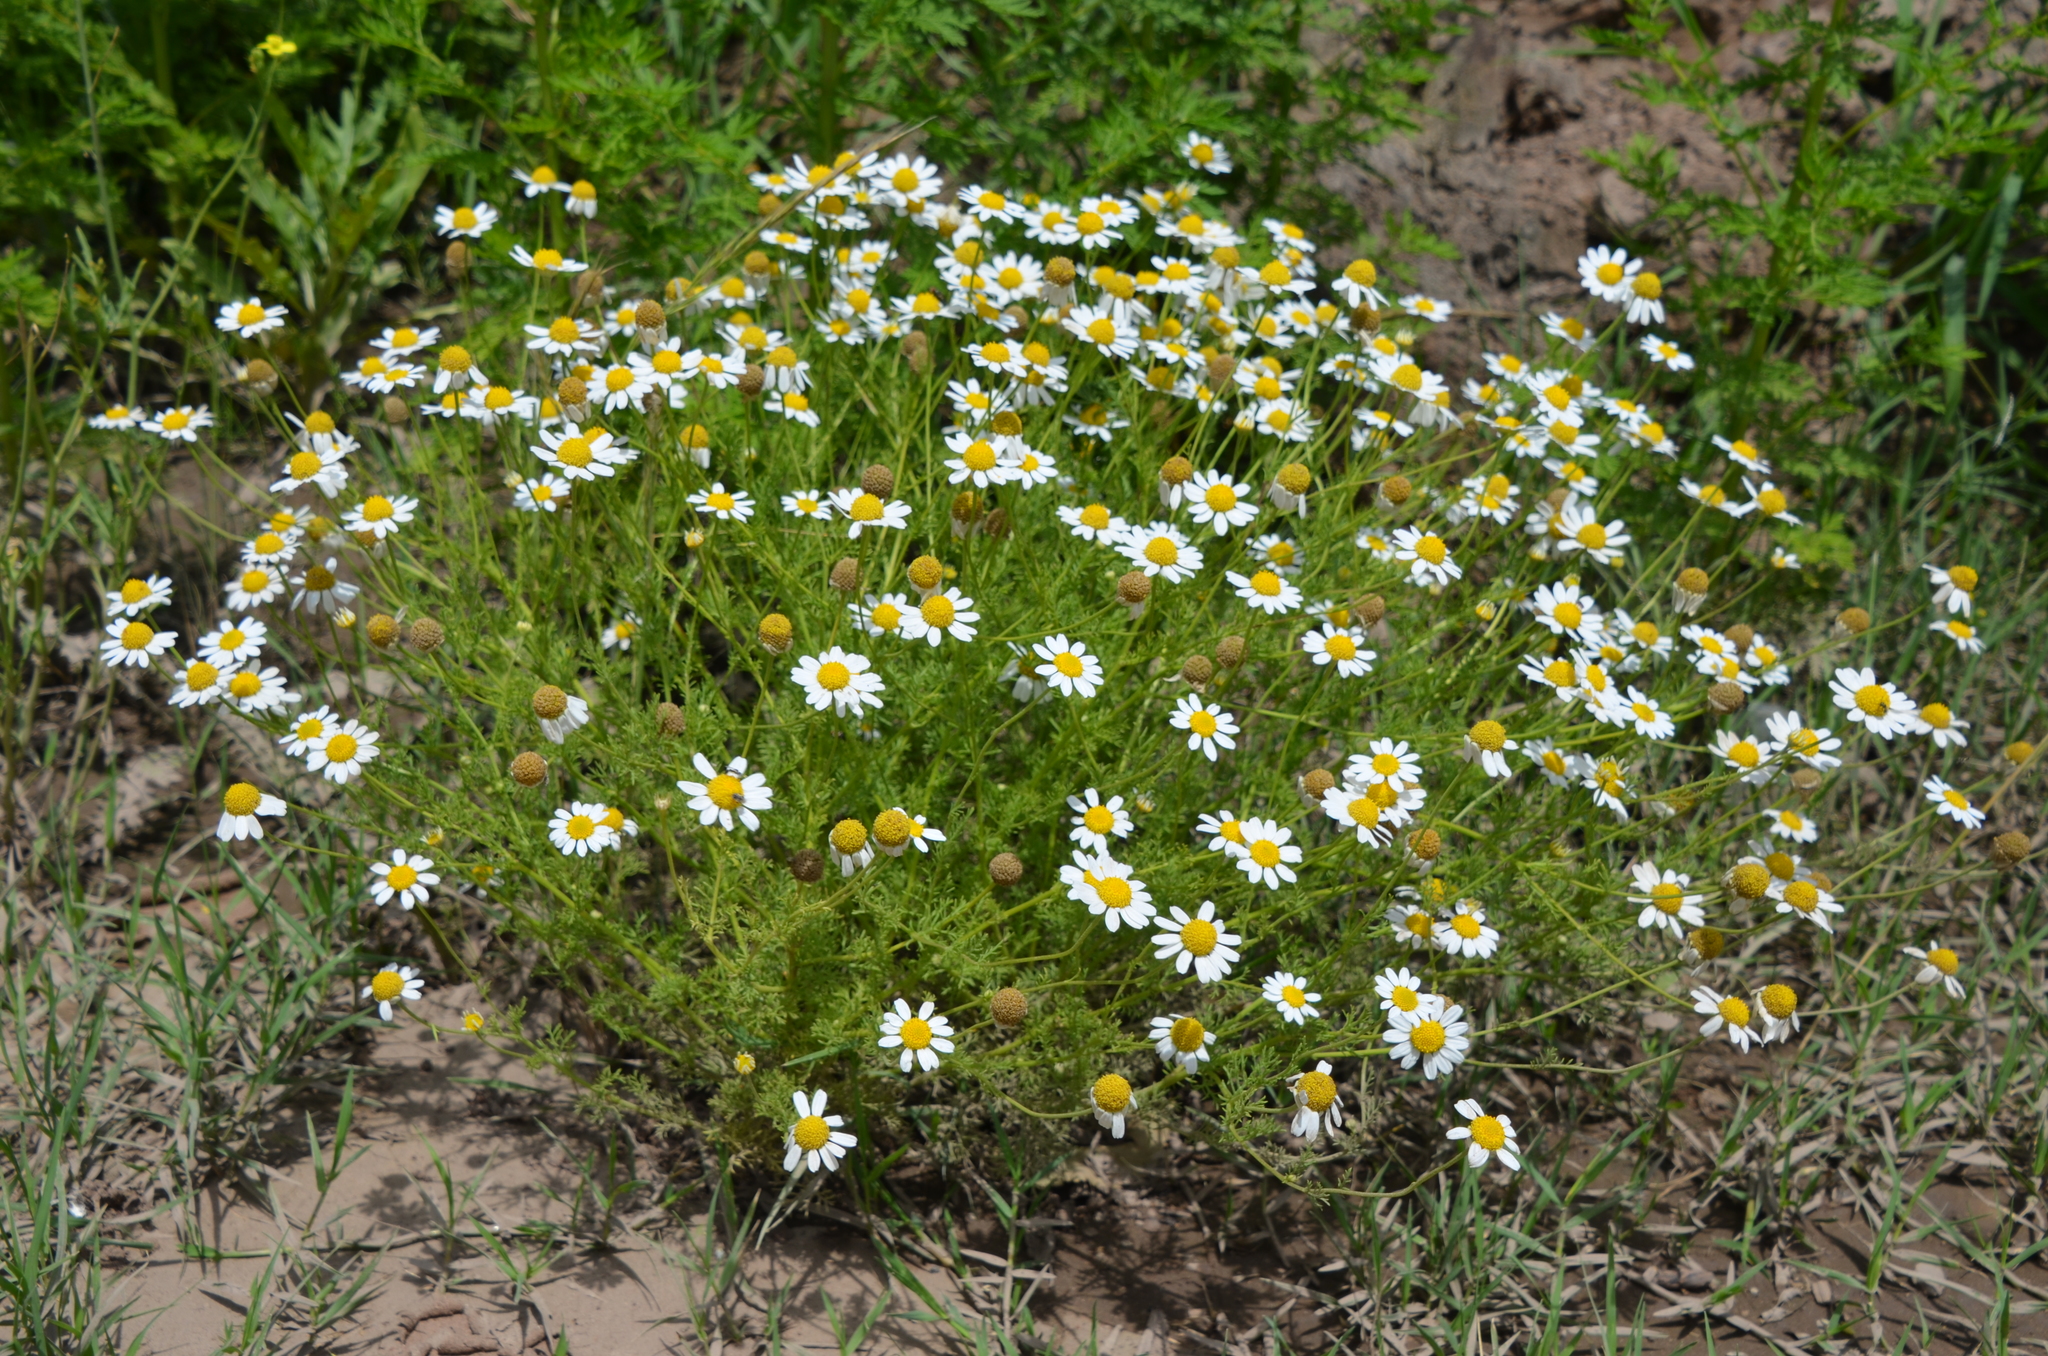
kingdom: Plantae
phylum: Tracheophyta
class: Magnoliopsida
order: Asterales
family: Asteraceae
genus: Matricaria
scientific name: Matricaria chamomilla
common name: Scented mayweed
